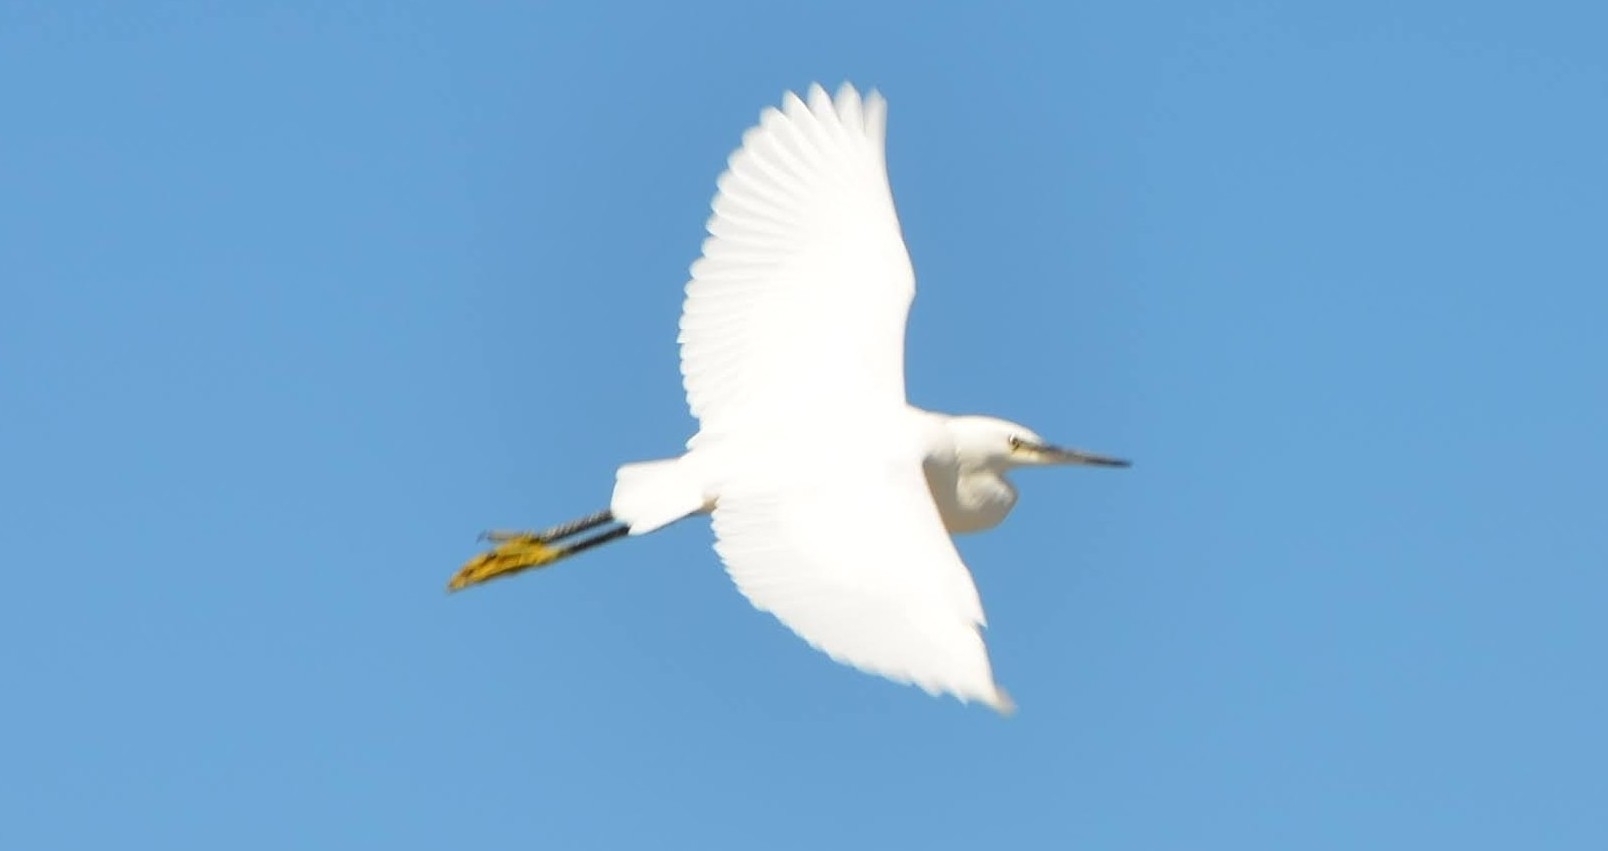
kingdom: Animalia
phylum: Chordata
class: Aves
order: Pelecaniformes
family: Ardeidae
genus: Egretta
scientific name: Egretta garzetta
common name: Little egret
